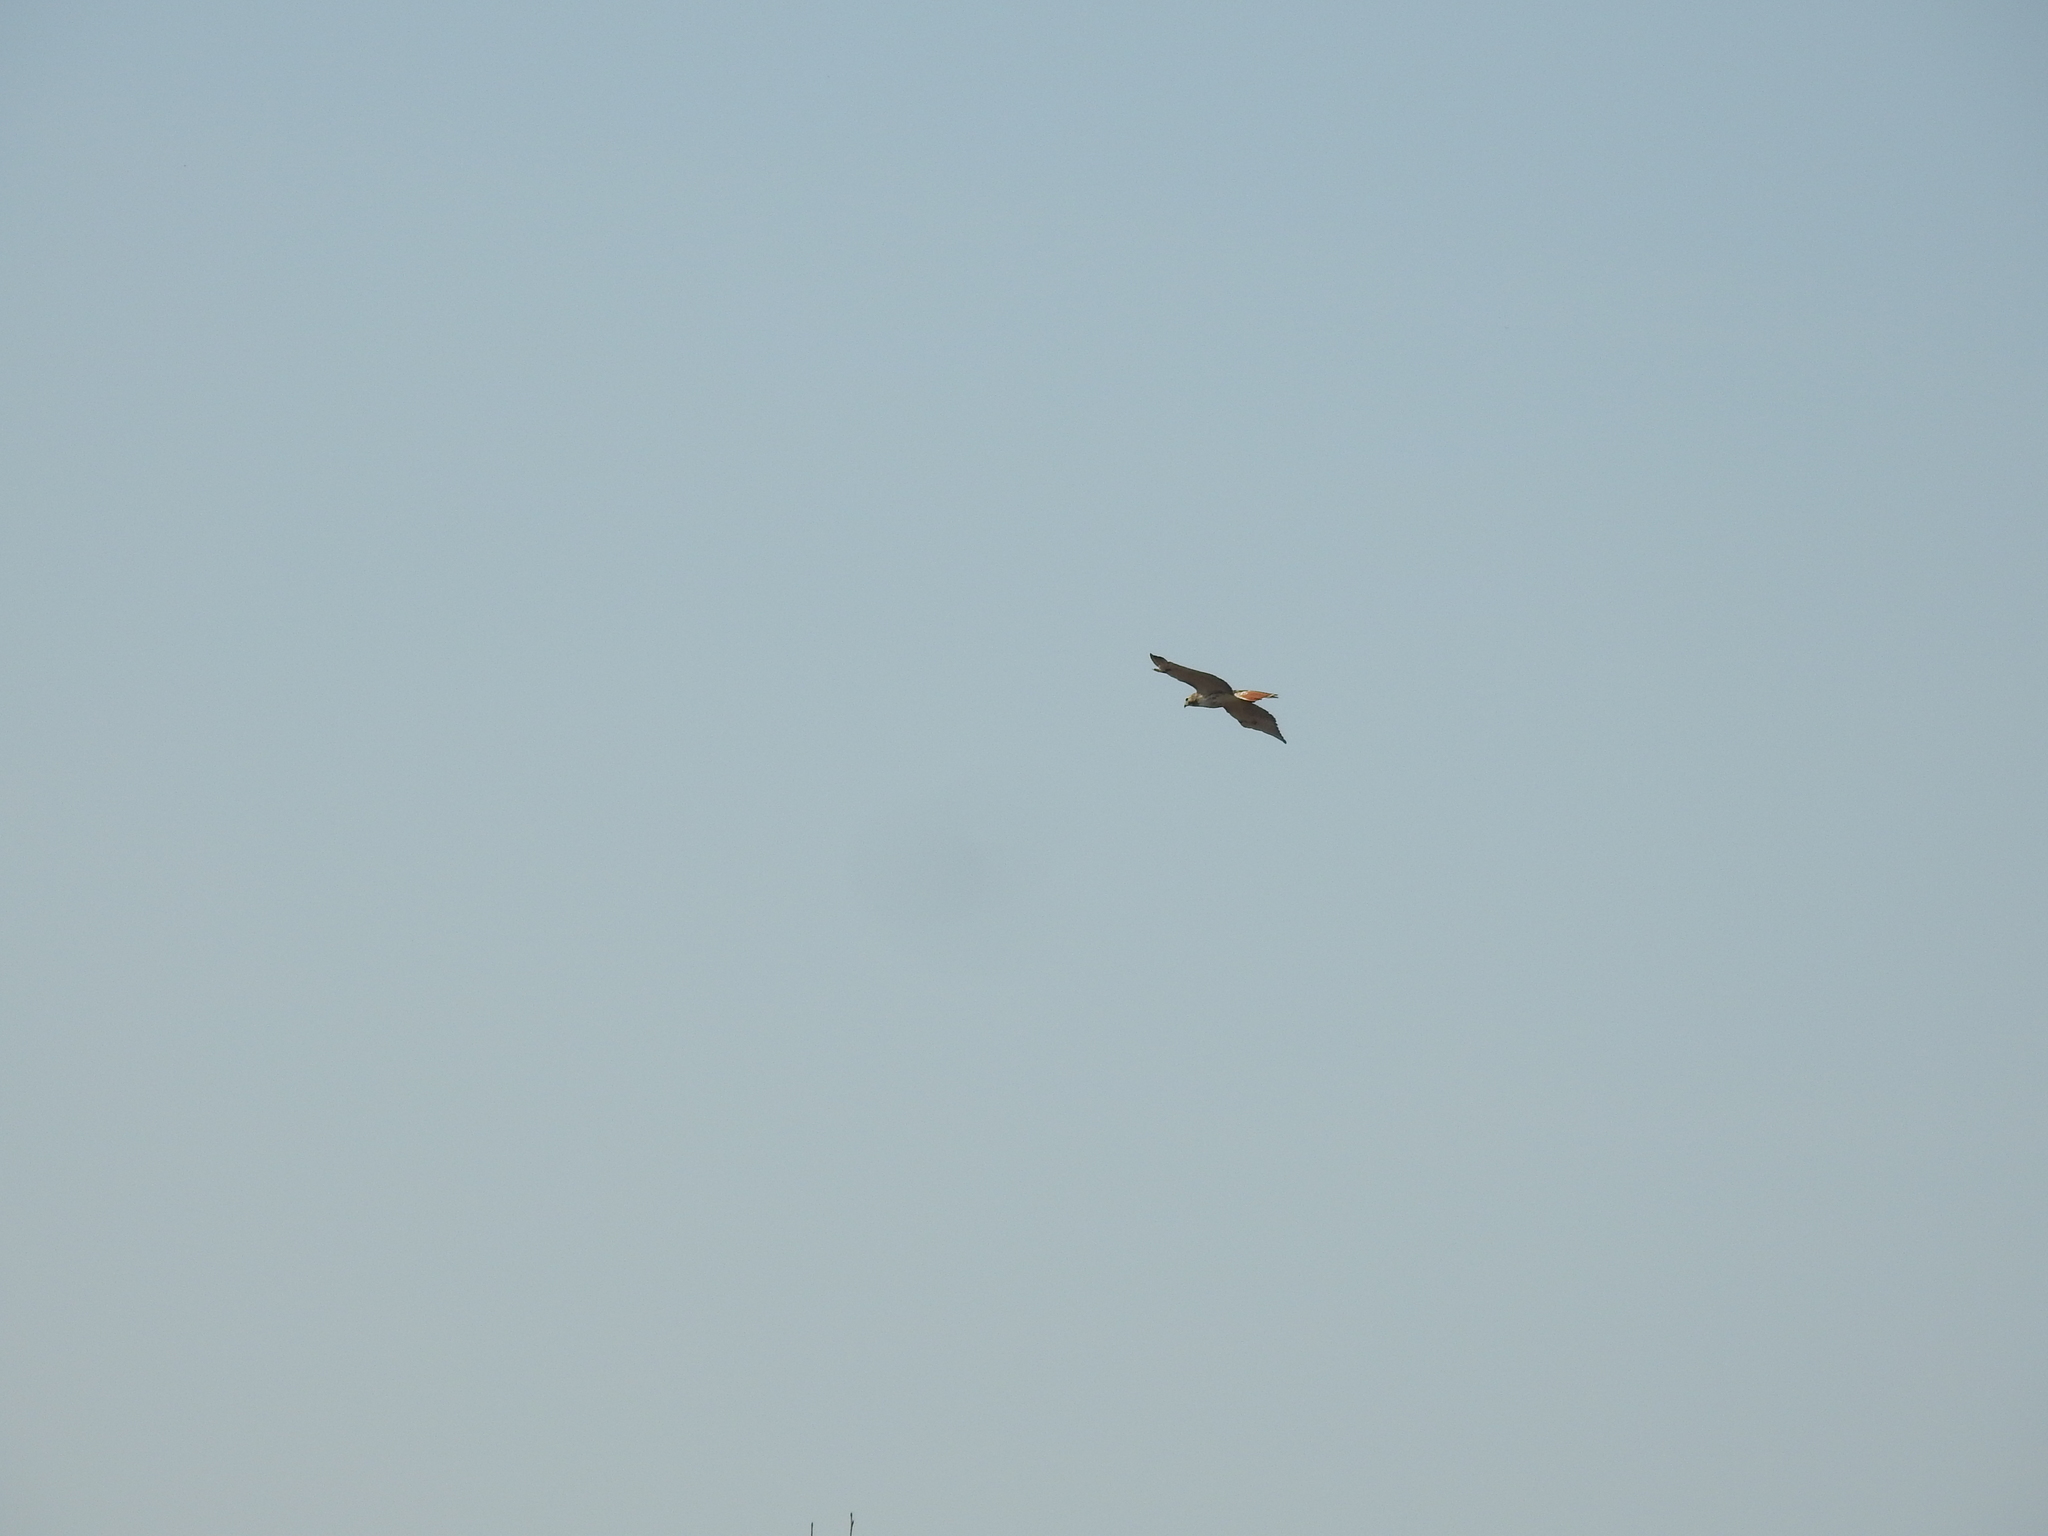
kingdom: Animalia
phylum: Chordata
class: Aves
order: Accipitriformes
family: Accipitridae
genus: Buteo
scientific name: Buteo jamaicensis
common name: Red-tailed hawk
